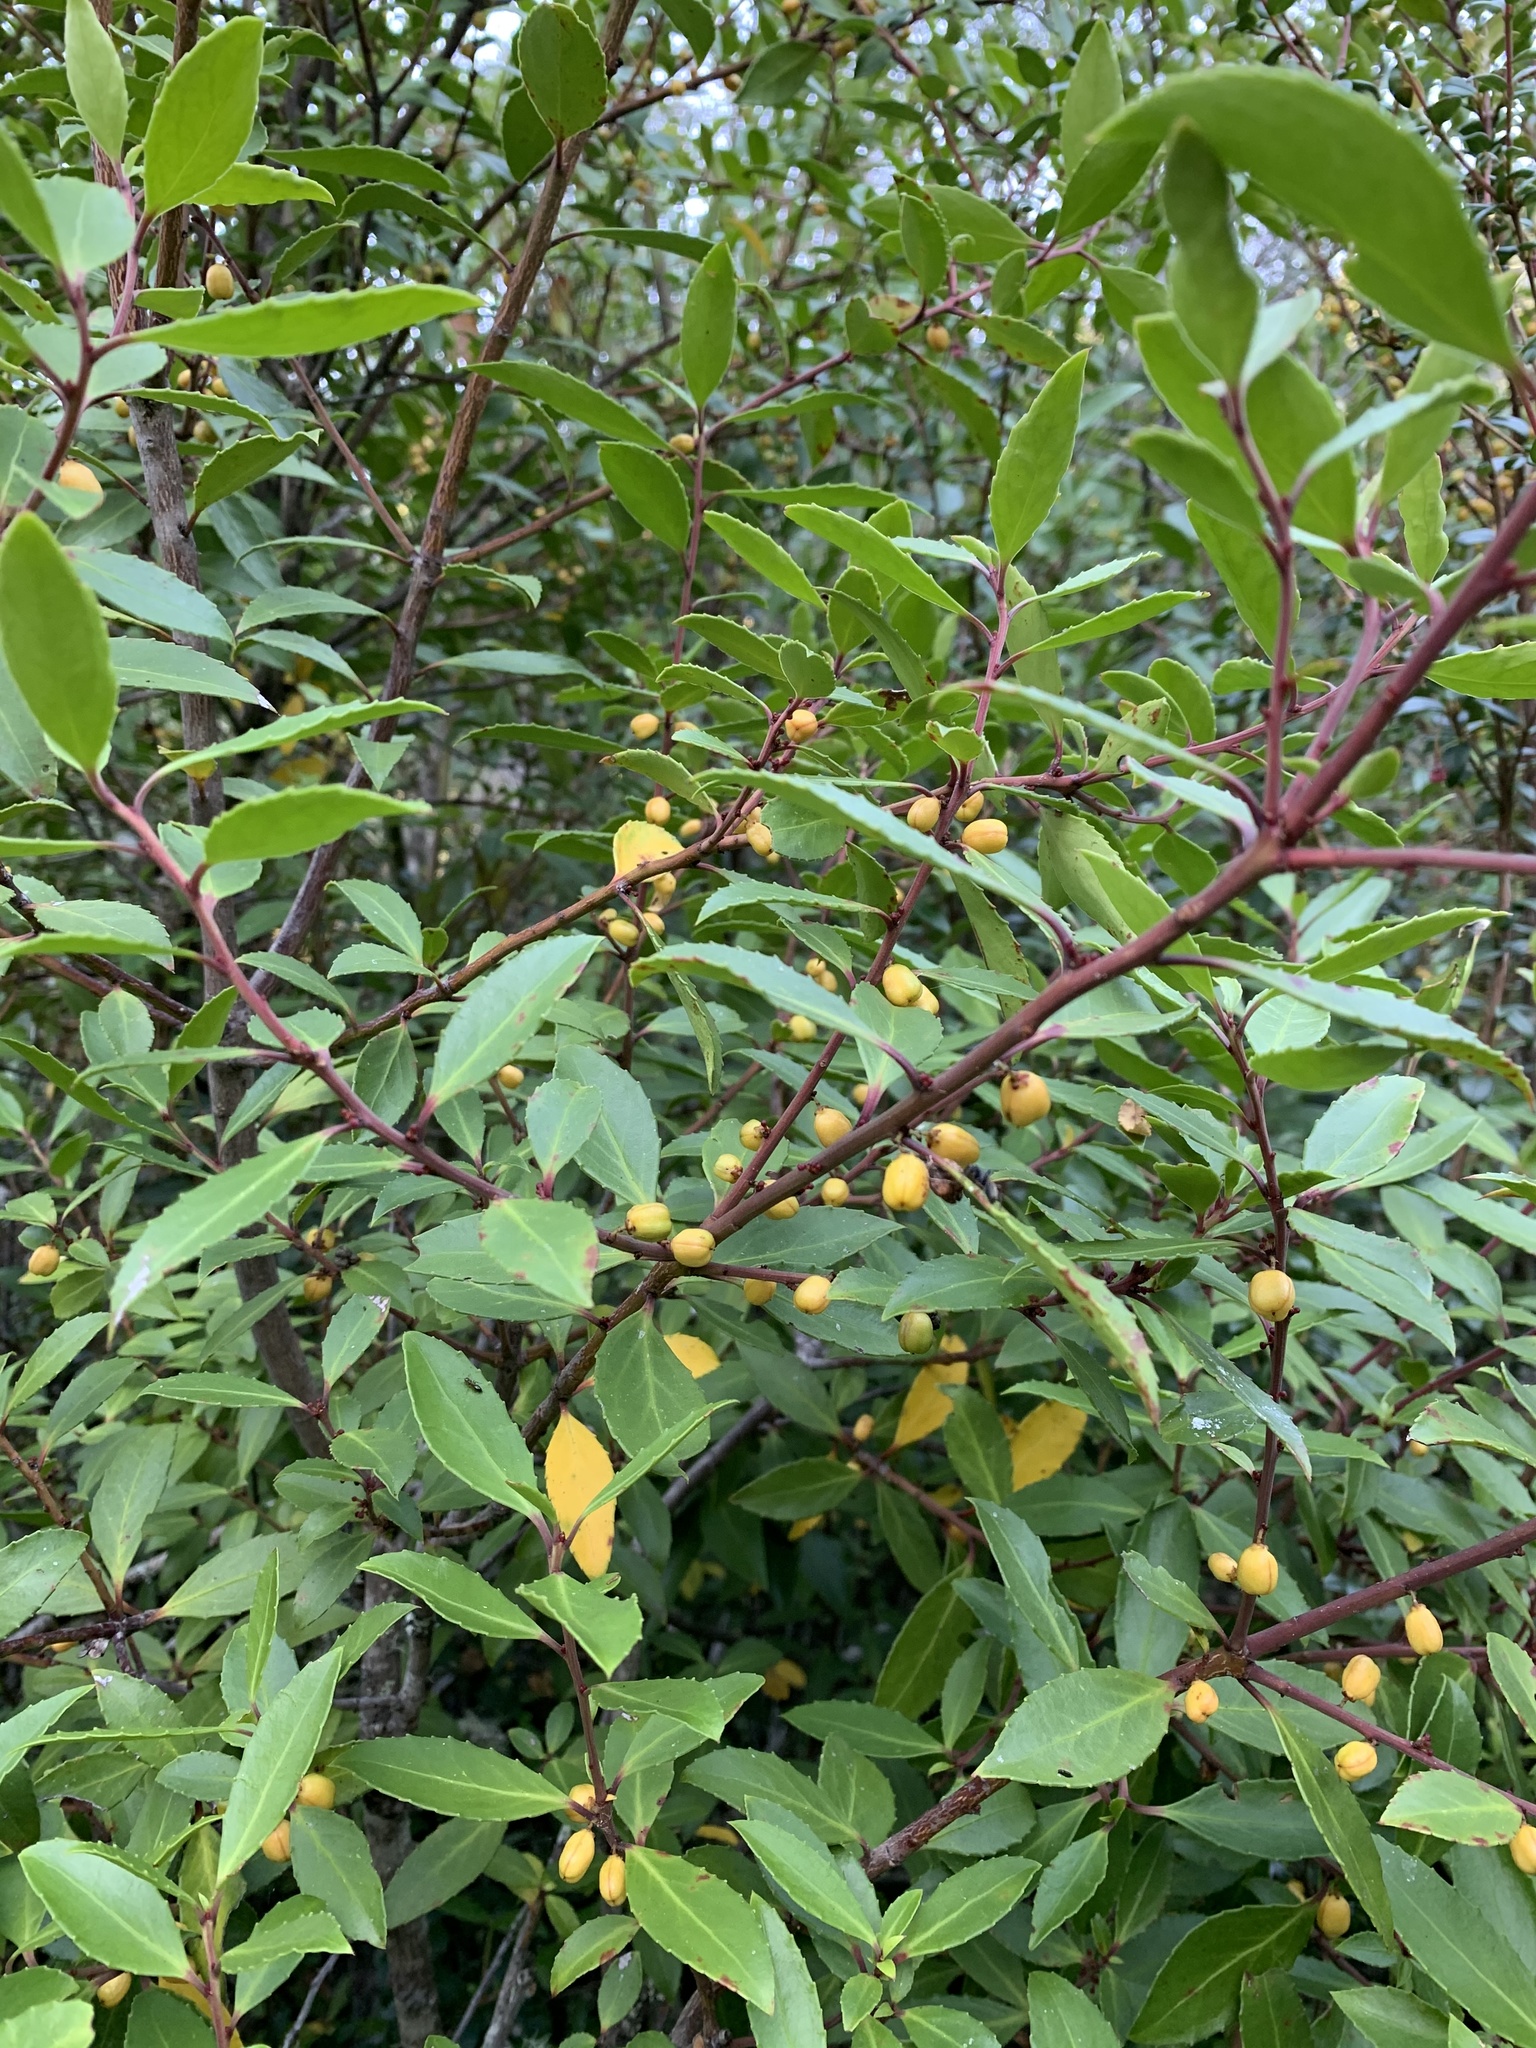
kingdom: Plantae
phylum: Tracheophyta
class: Magnoliopsida
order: Celastrales
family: Celastraceae
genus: Maytenus
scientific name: Maytenus magellanica
